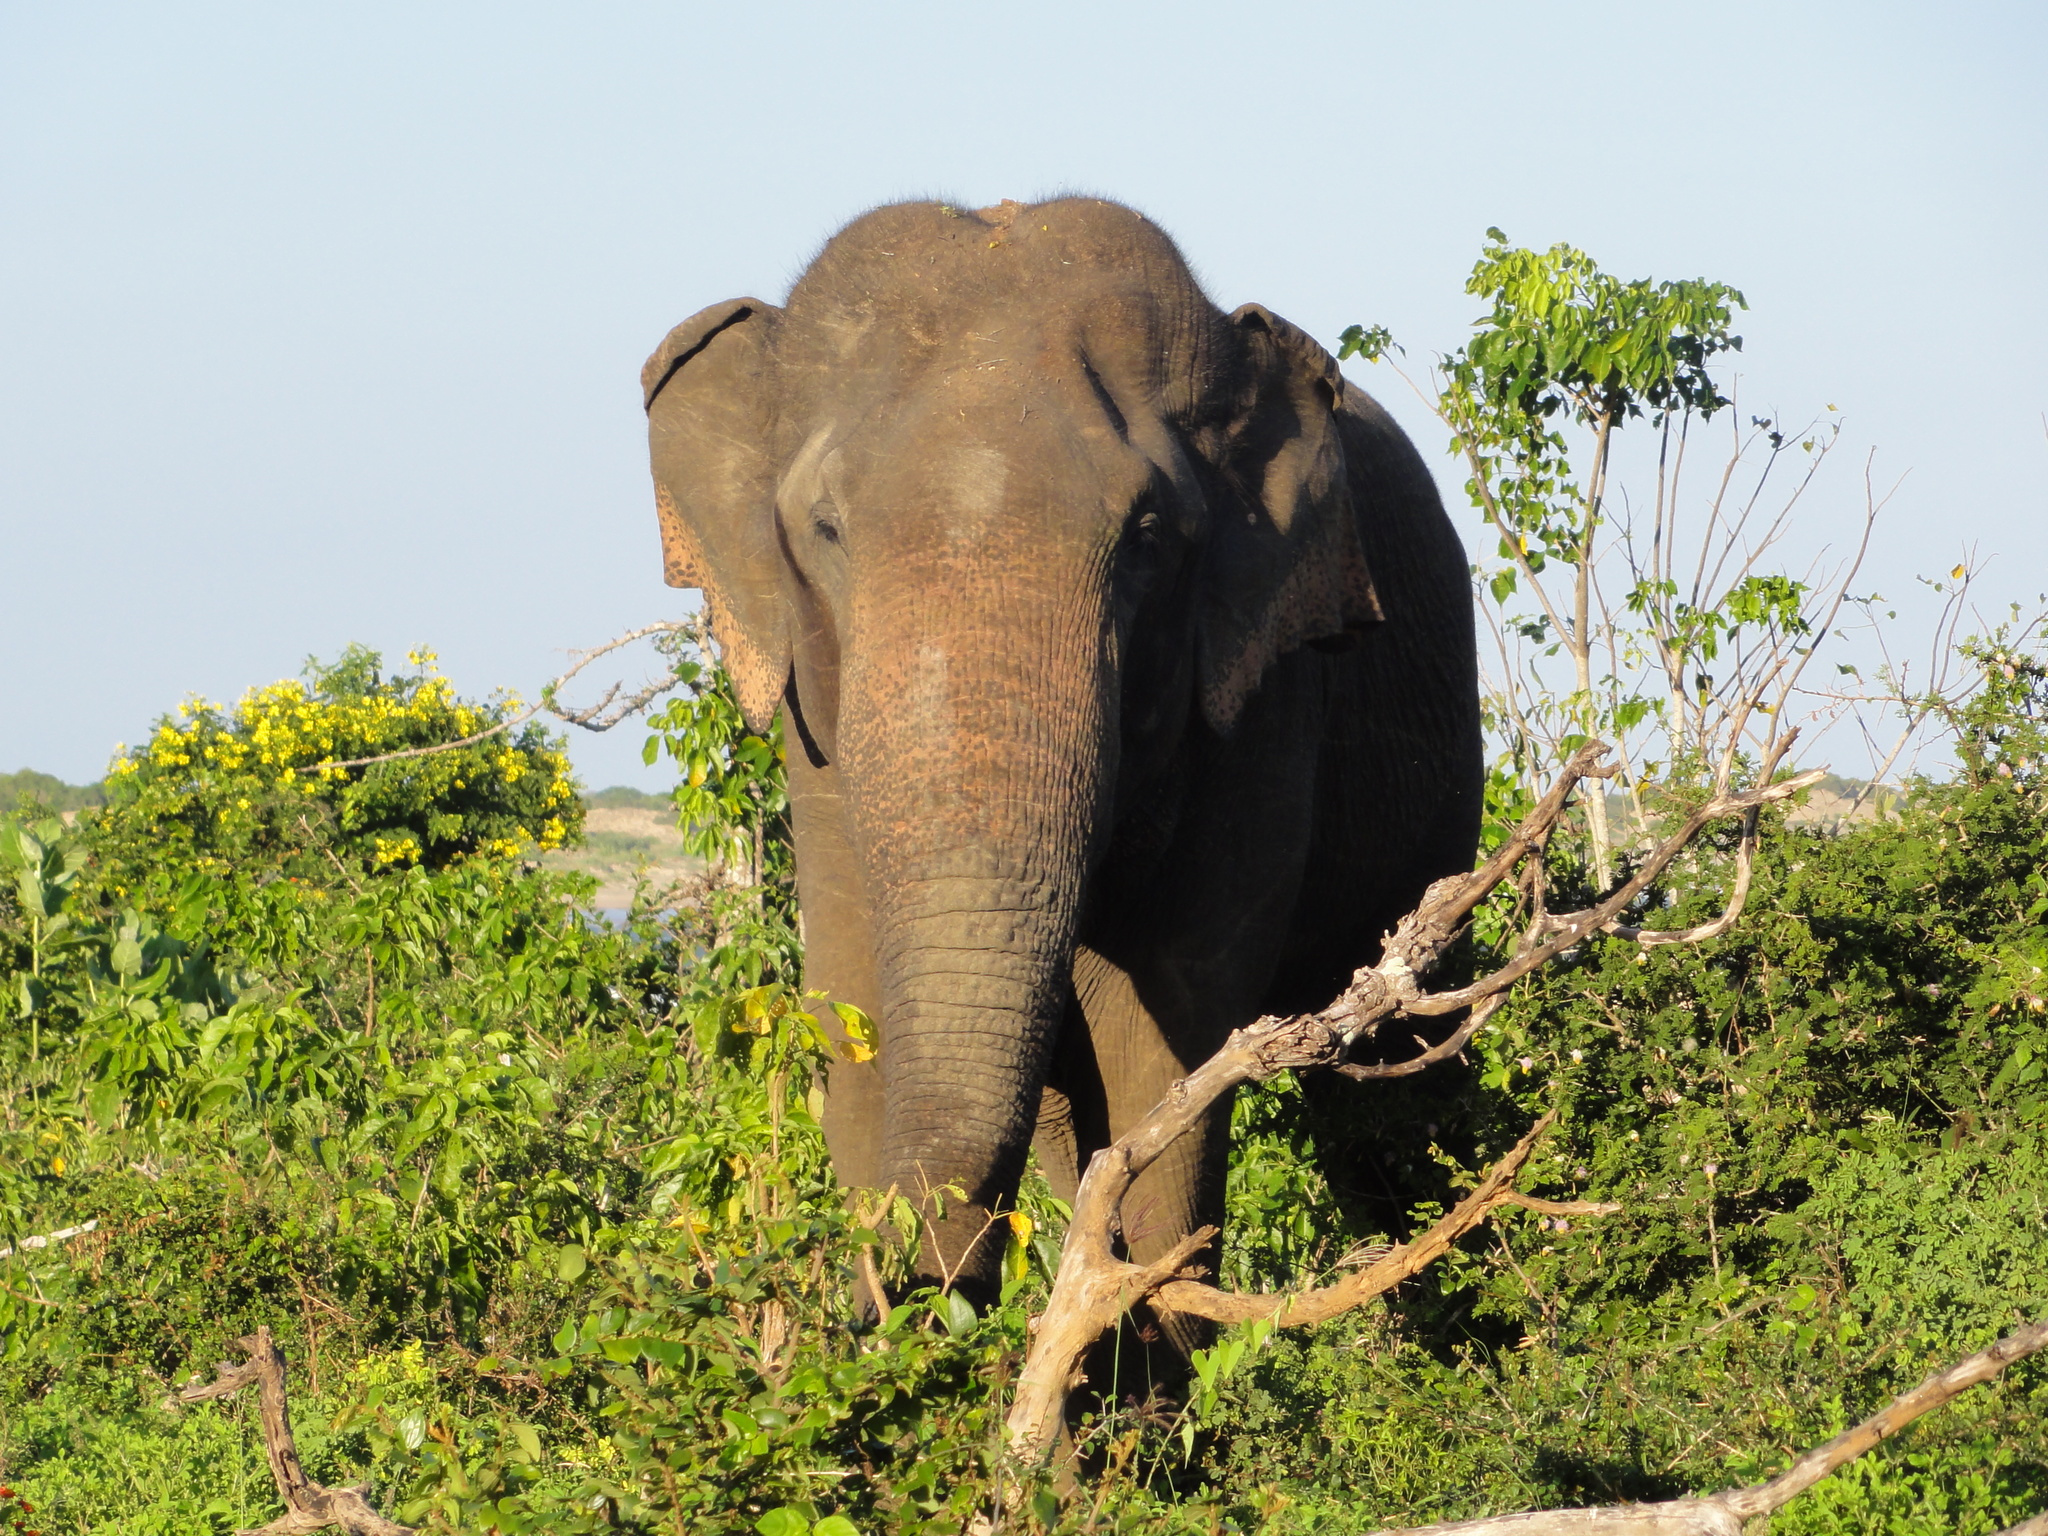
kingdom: Animalia
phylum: Chordata
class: Mammalia
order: Proboscidea
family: Elephantidae
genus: Elephas
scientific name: Elephas maximus
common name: Asian elephant
